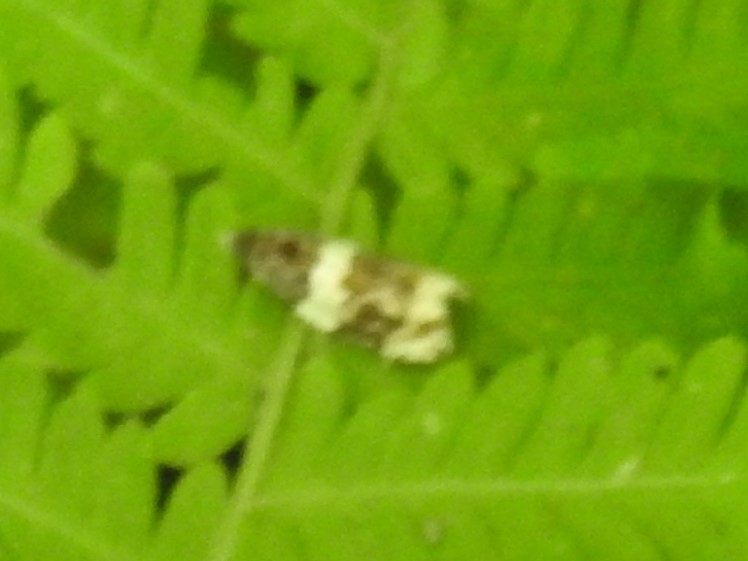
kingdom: Animalia
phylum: Arthropoda
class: Insecta
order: Lepidoptera
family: Tortricidae
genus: Olethreutes
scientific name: Olethreutes fasciatana
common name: Banded olethreutes moth
